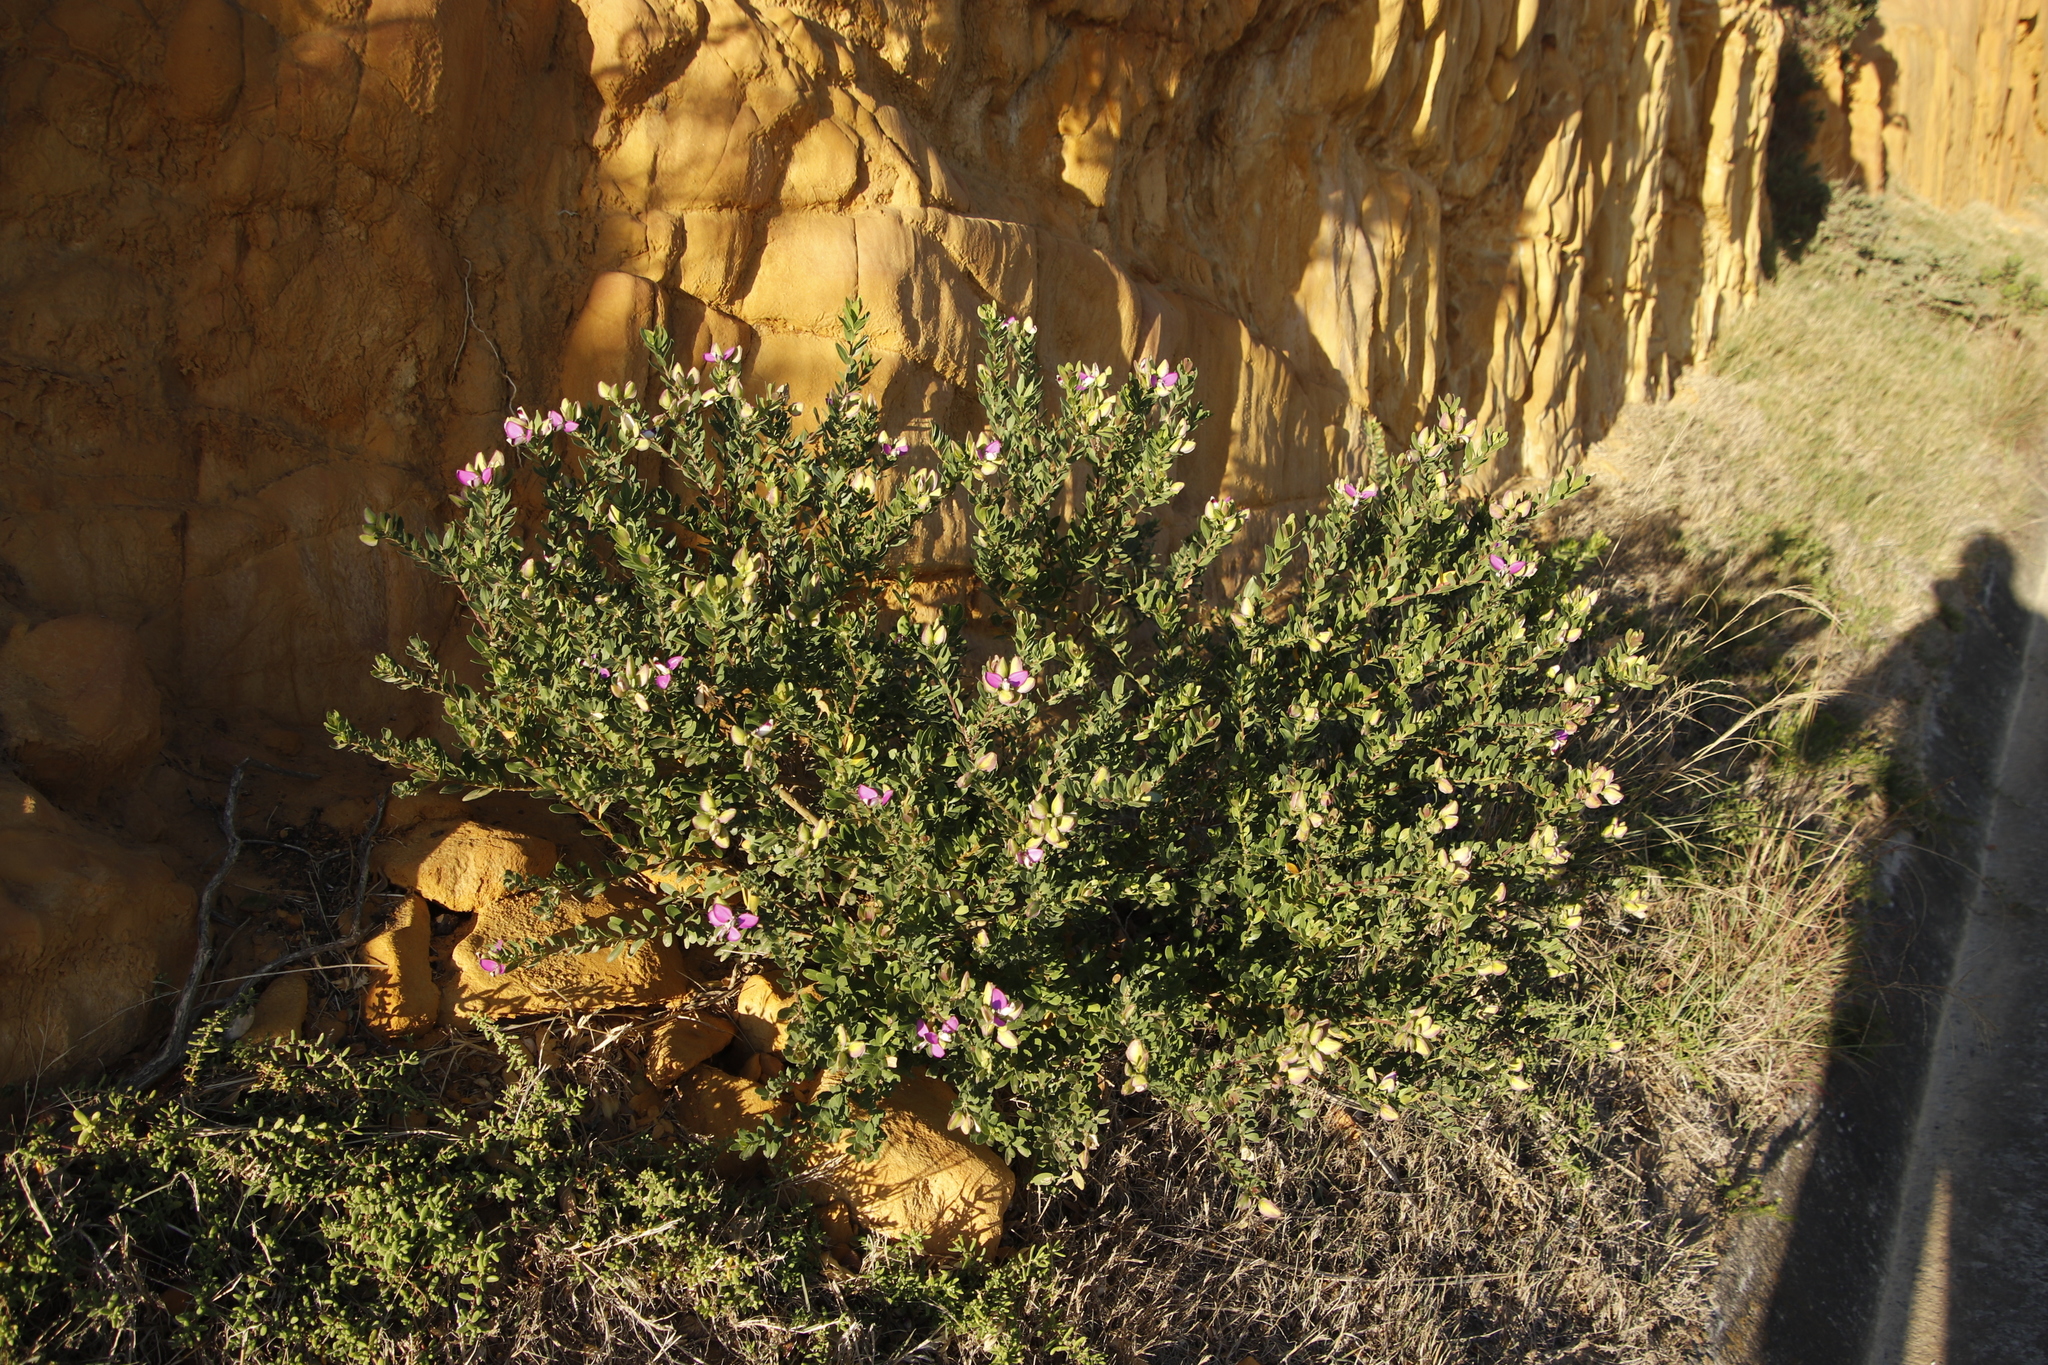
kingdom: Plantae
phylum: Tracheophyta
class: Magnoliopsida
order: Fabales
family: Polygalaceae
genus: Polygala
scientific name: Polygala myrtifolia
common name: Myrtle-leaf milkwort
